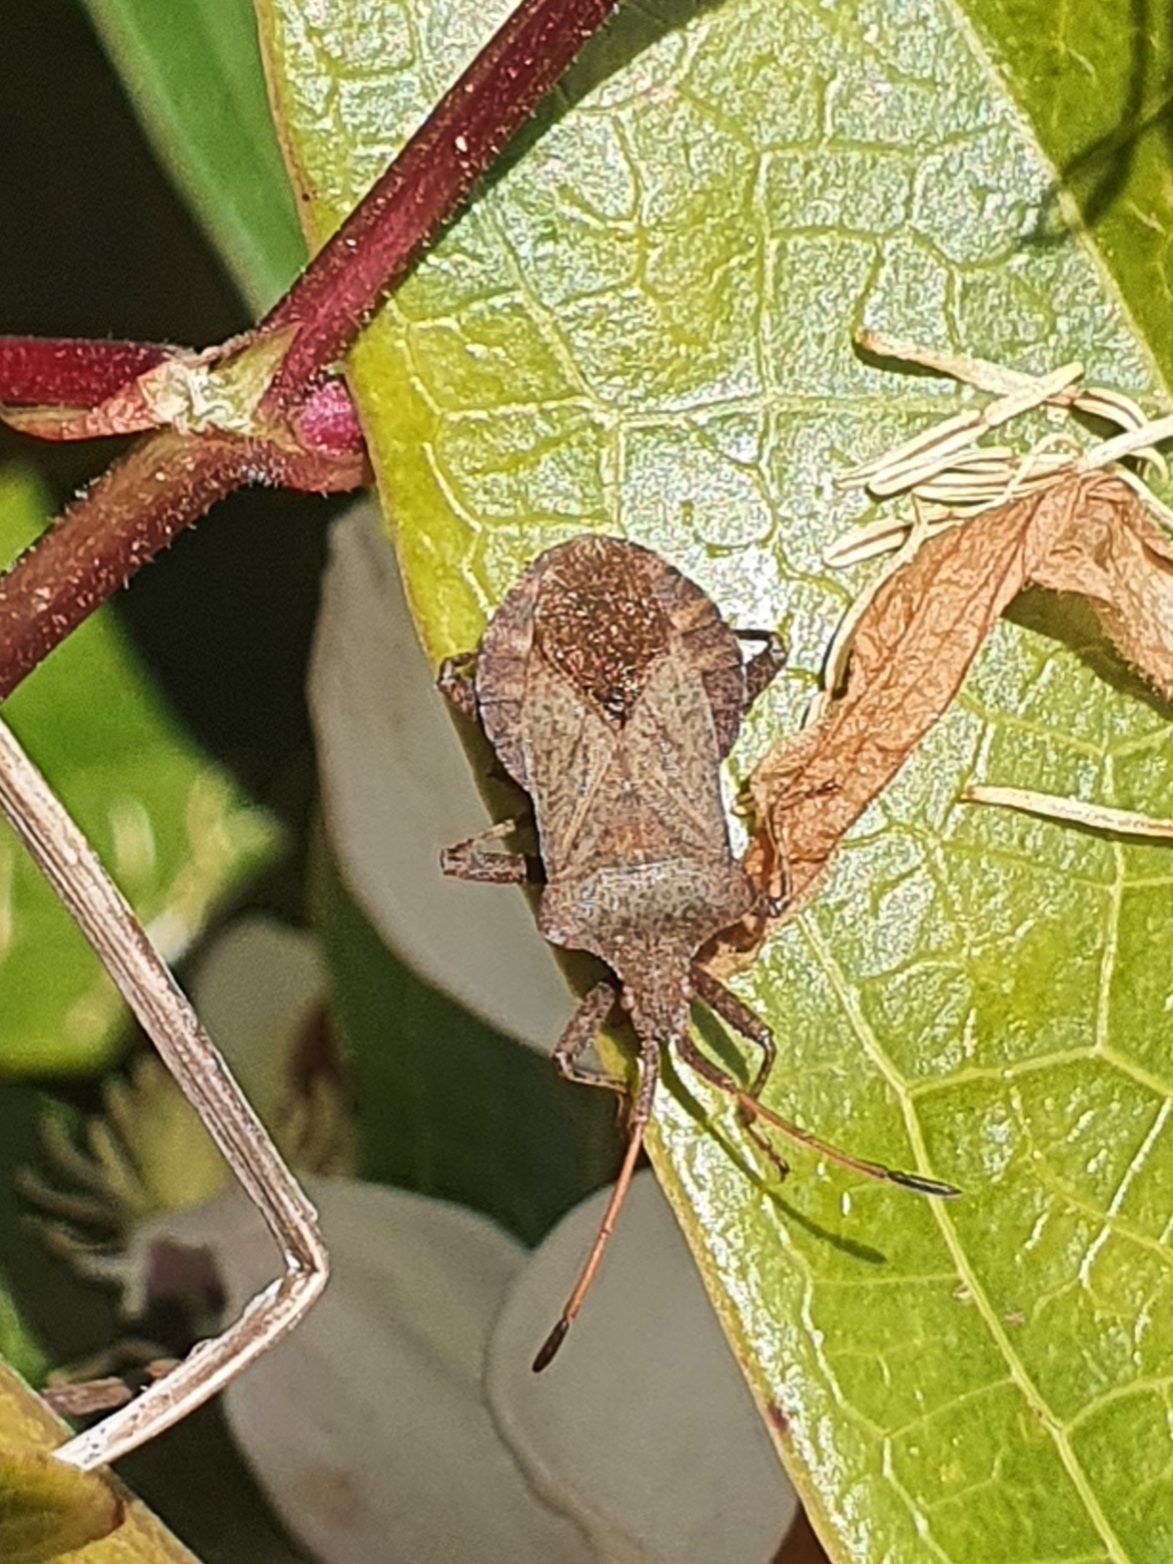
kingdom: Animalia
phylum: Arthropoda
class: Insecta
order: Hemiptera
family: Coreidae
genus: Coreus
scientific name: Coreus marginatus
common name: Dock bug
